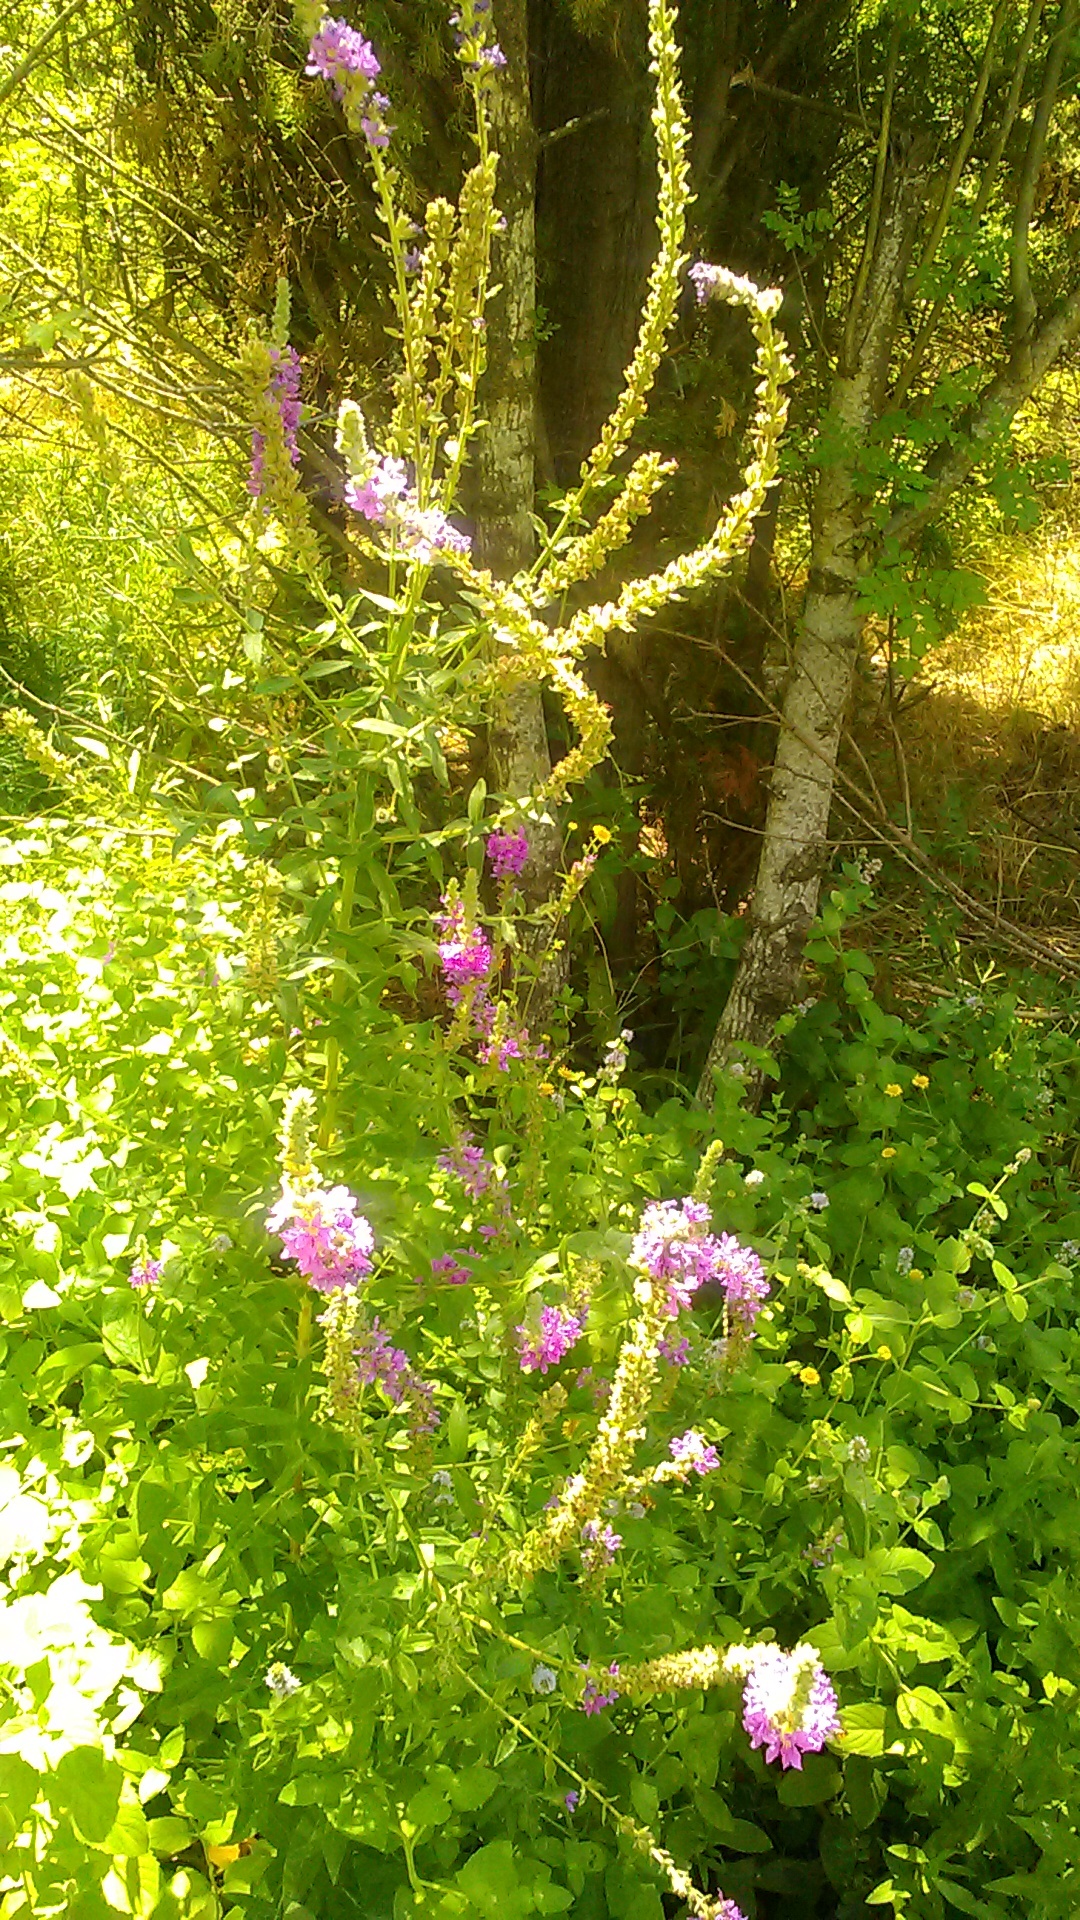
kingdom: Plantae
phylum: Tracheophyta
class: Magnoliopsida
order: Myrtales
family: Lythraceae
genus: Lythrum
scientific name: Lythrum salicaria
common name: Purple loosestrife
